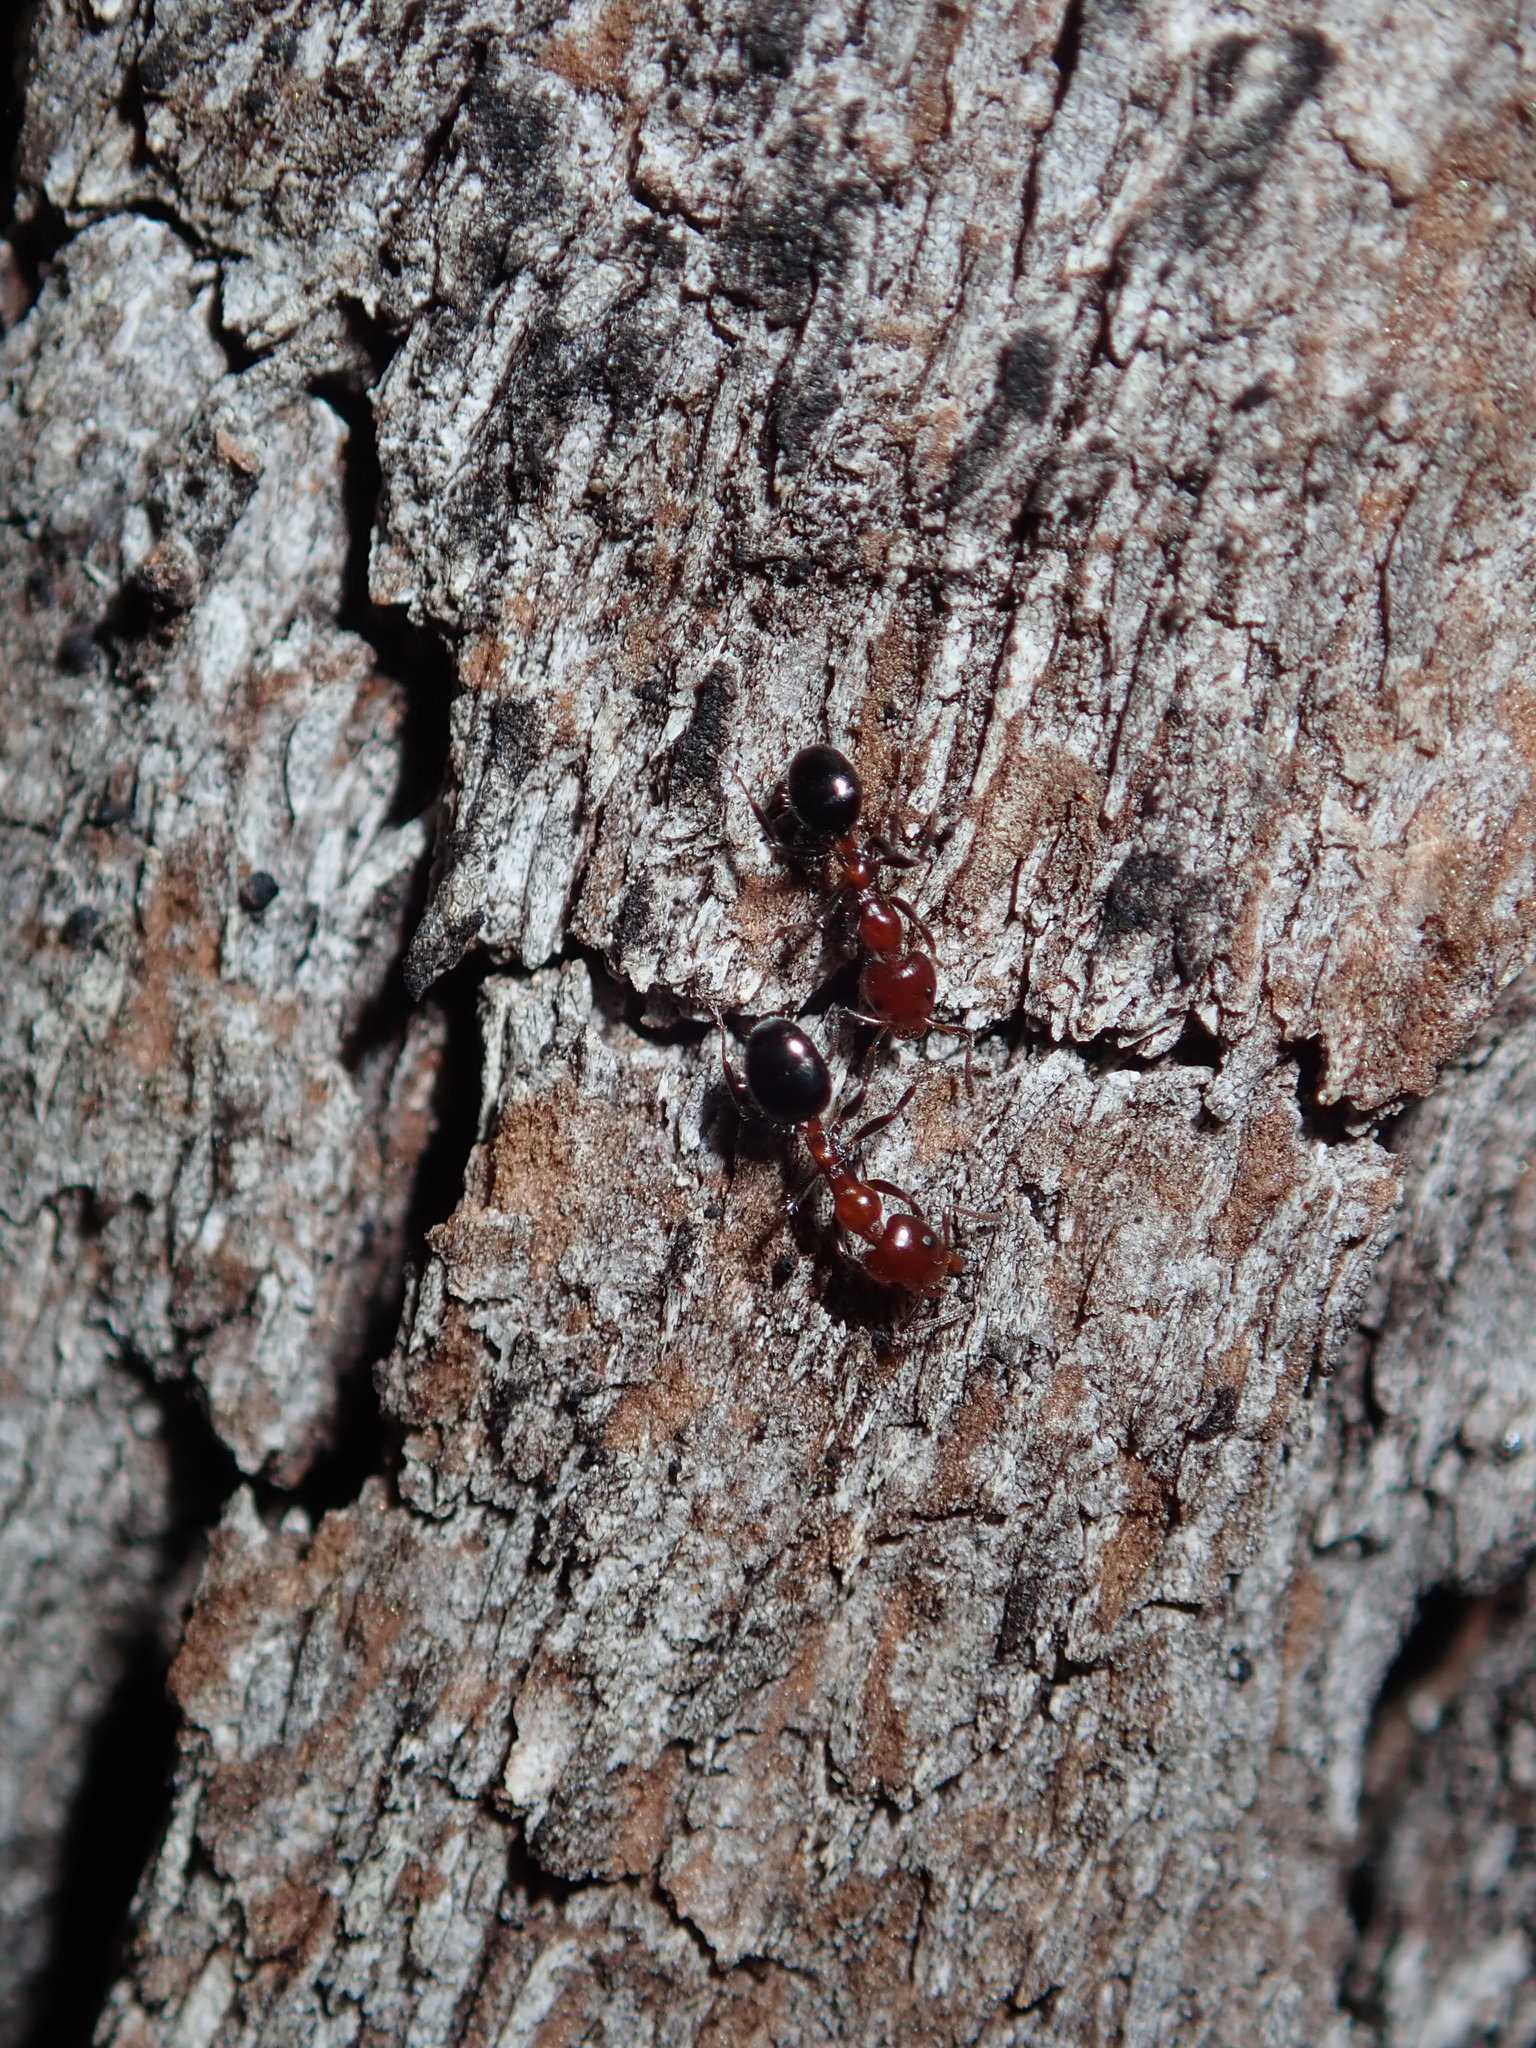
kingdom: Animalia
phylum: Arthropoda
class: Insecta
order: Hymenoptera
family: Formicidae
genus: Froggattella
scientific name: Froggattella kirbii
